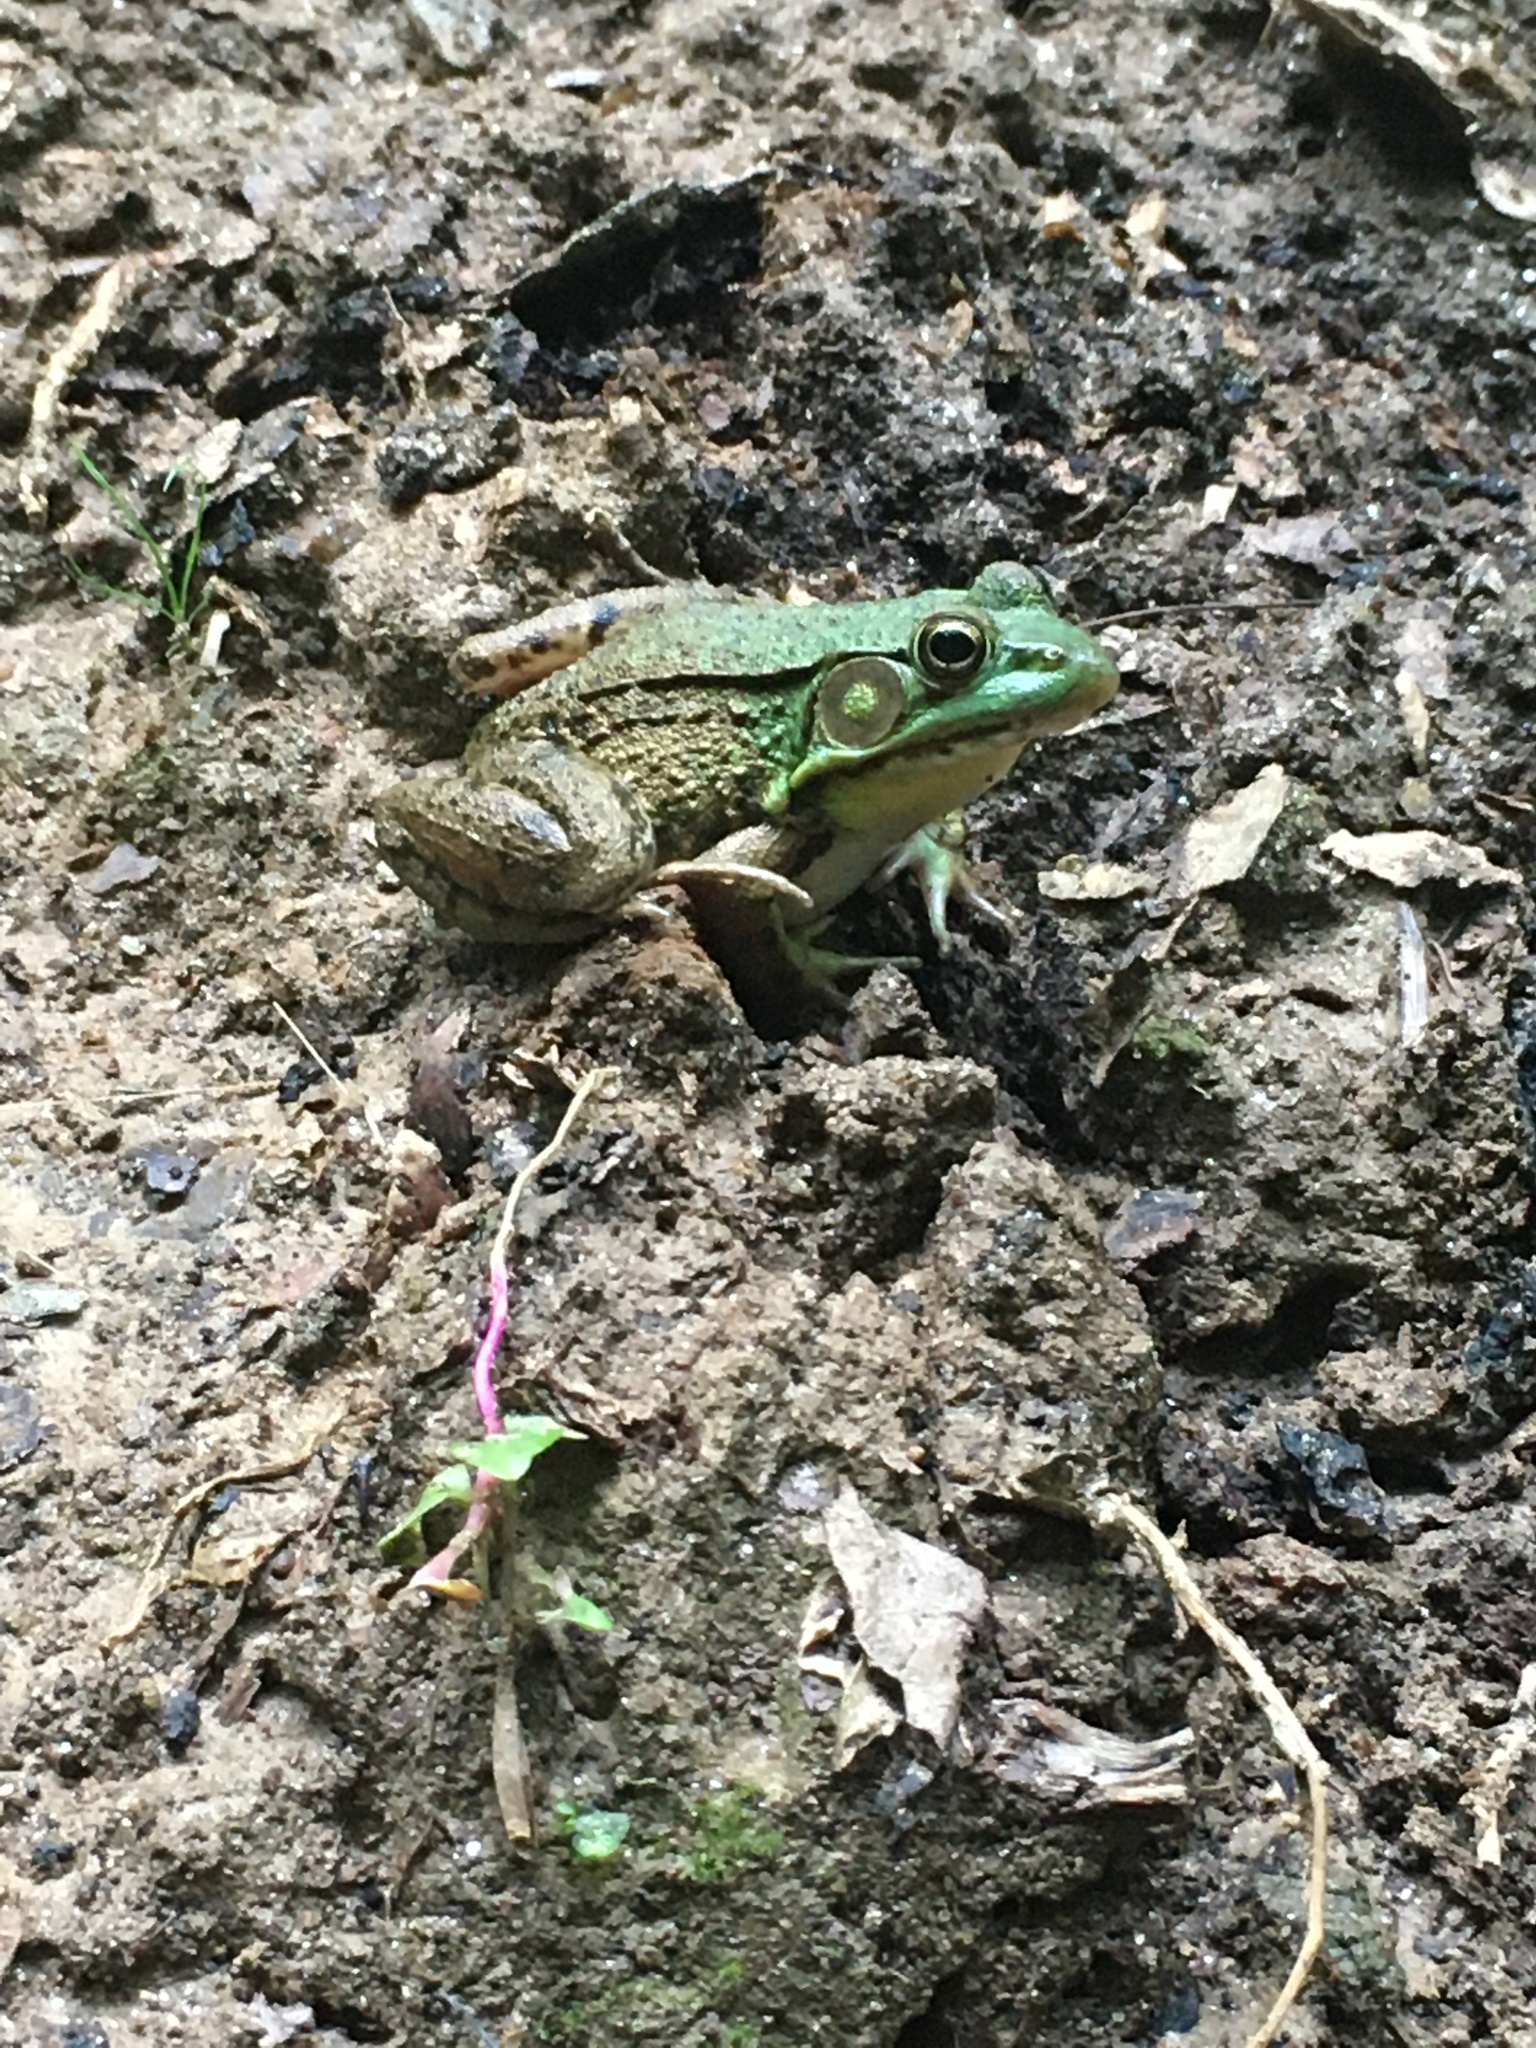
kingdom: Animalia
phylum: Chordata
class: Amphibia
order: Anura
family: Ranidae
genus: Lithobates
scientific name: Lithobates clamitans
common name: Green frog
